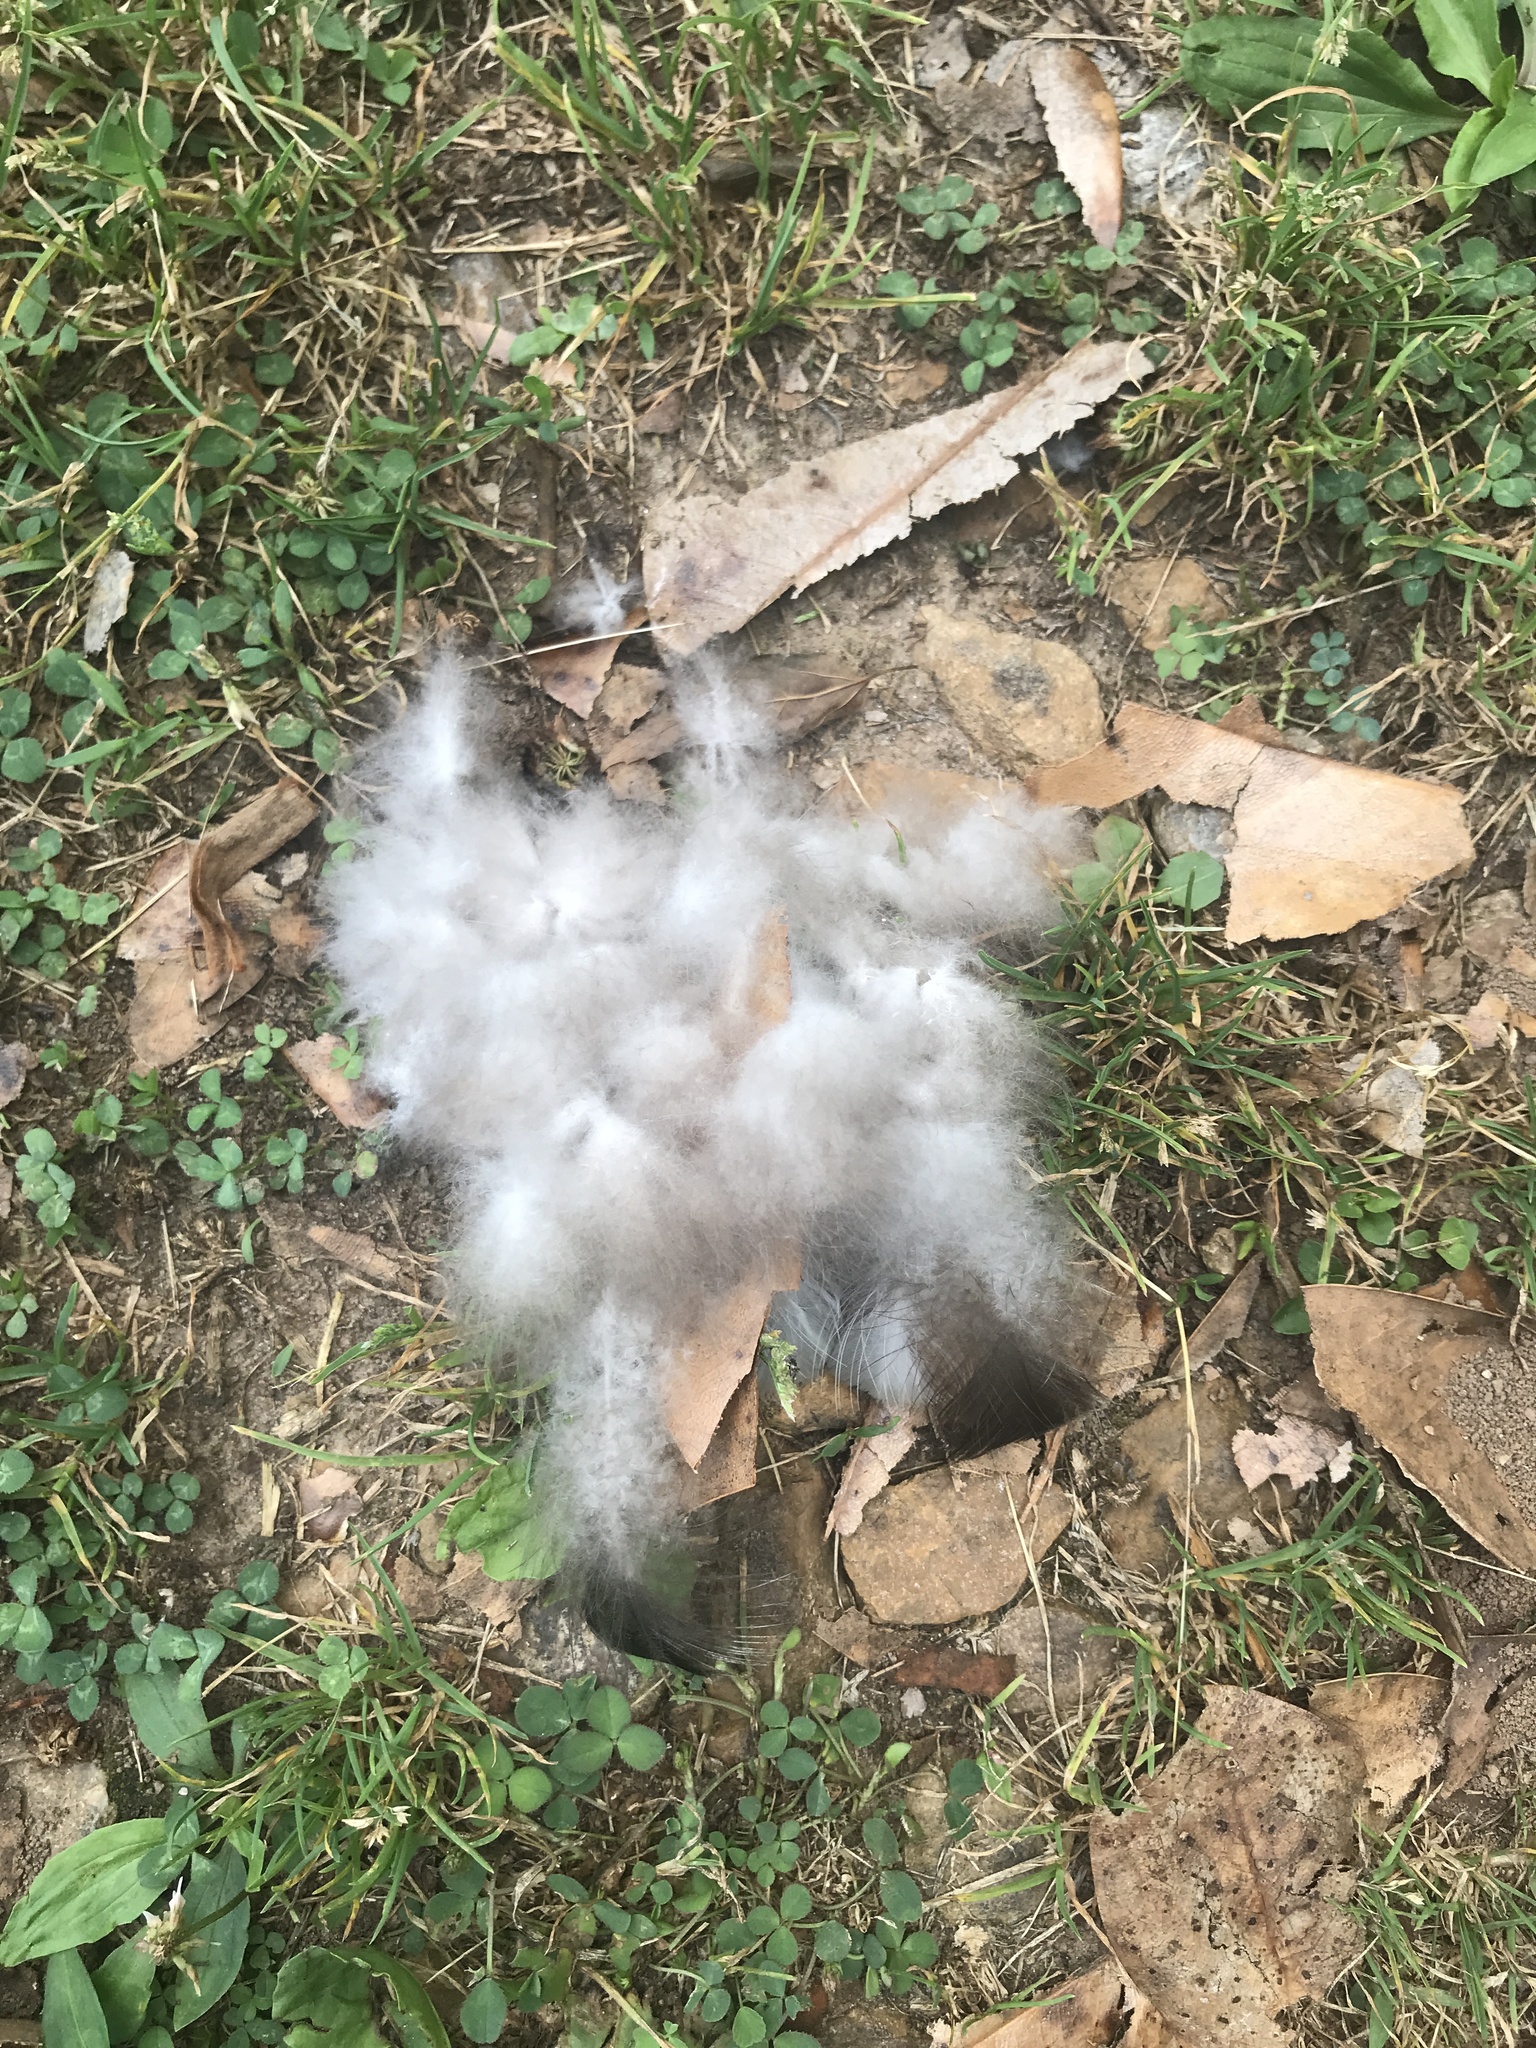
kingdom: Animalia
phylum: Chordata
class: Aves
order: Anseriformes
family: Anatidae
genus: Branta
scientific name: Branta canadensis
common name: Canada goose
